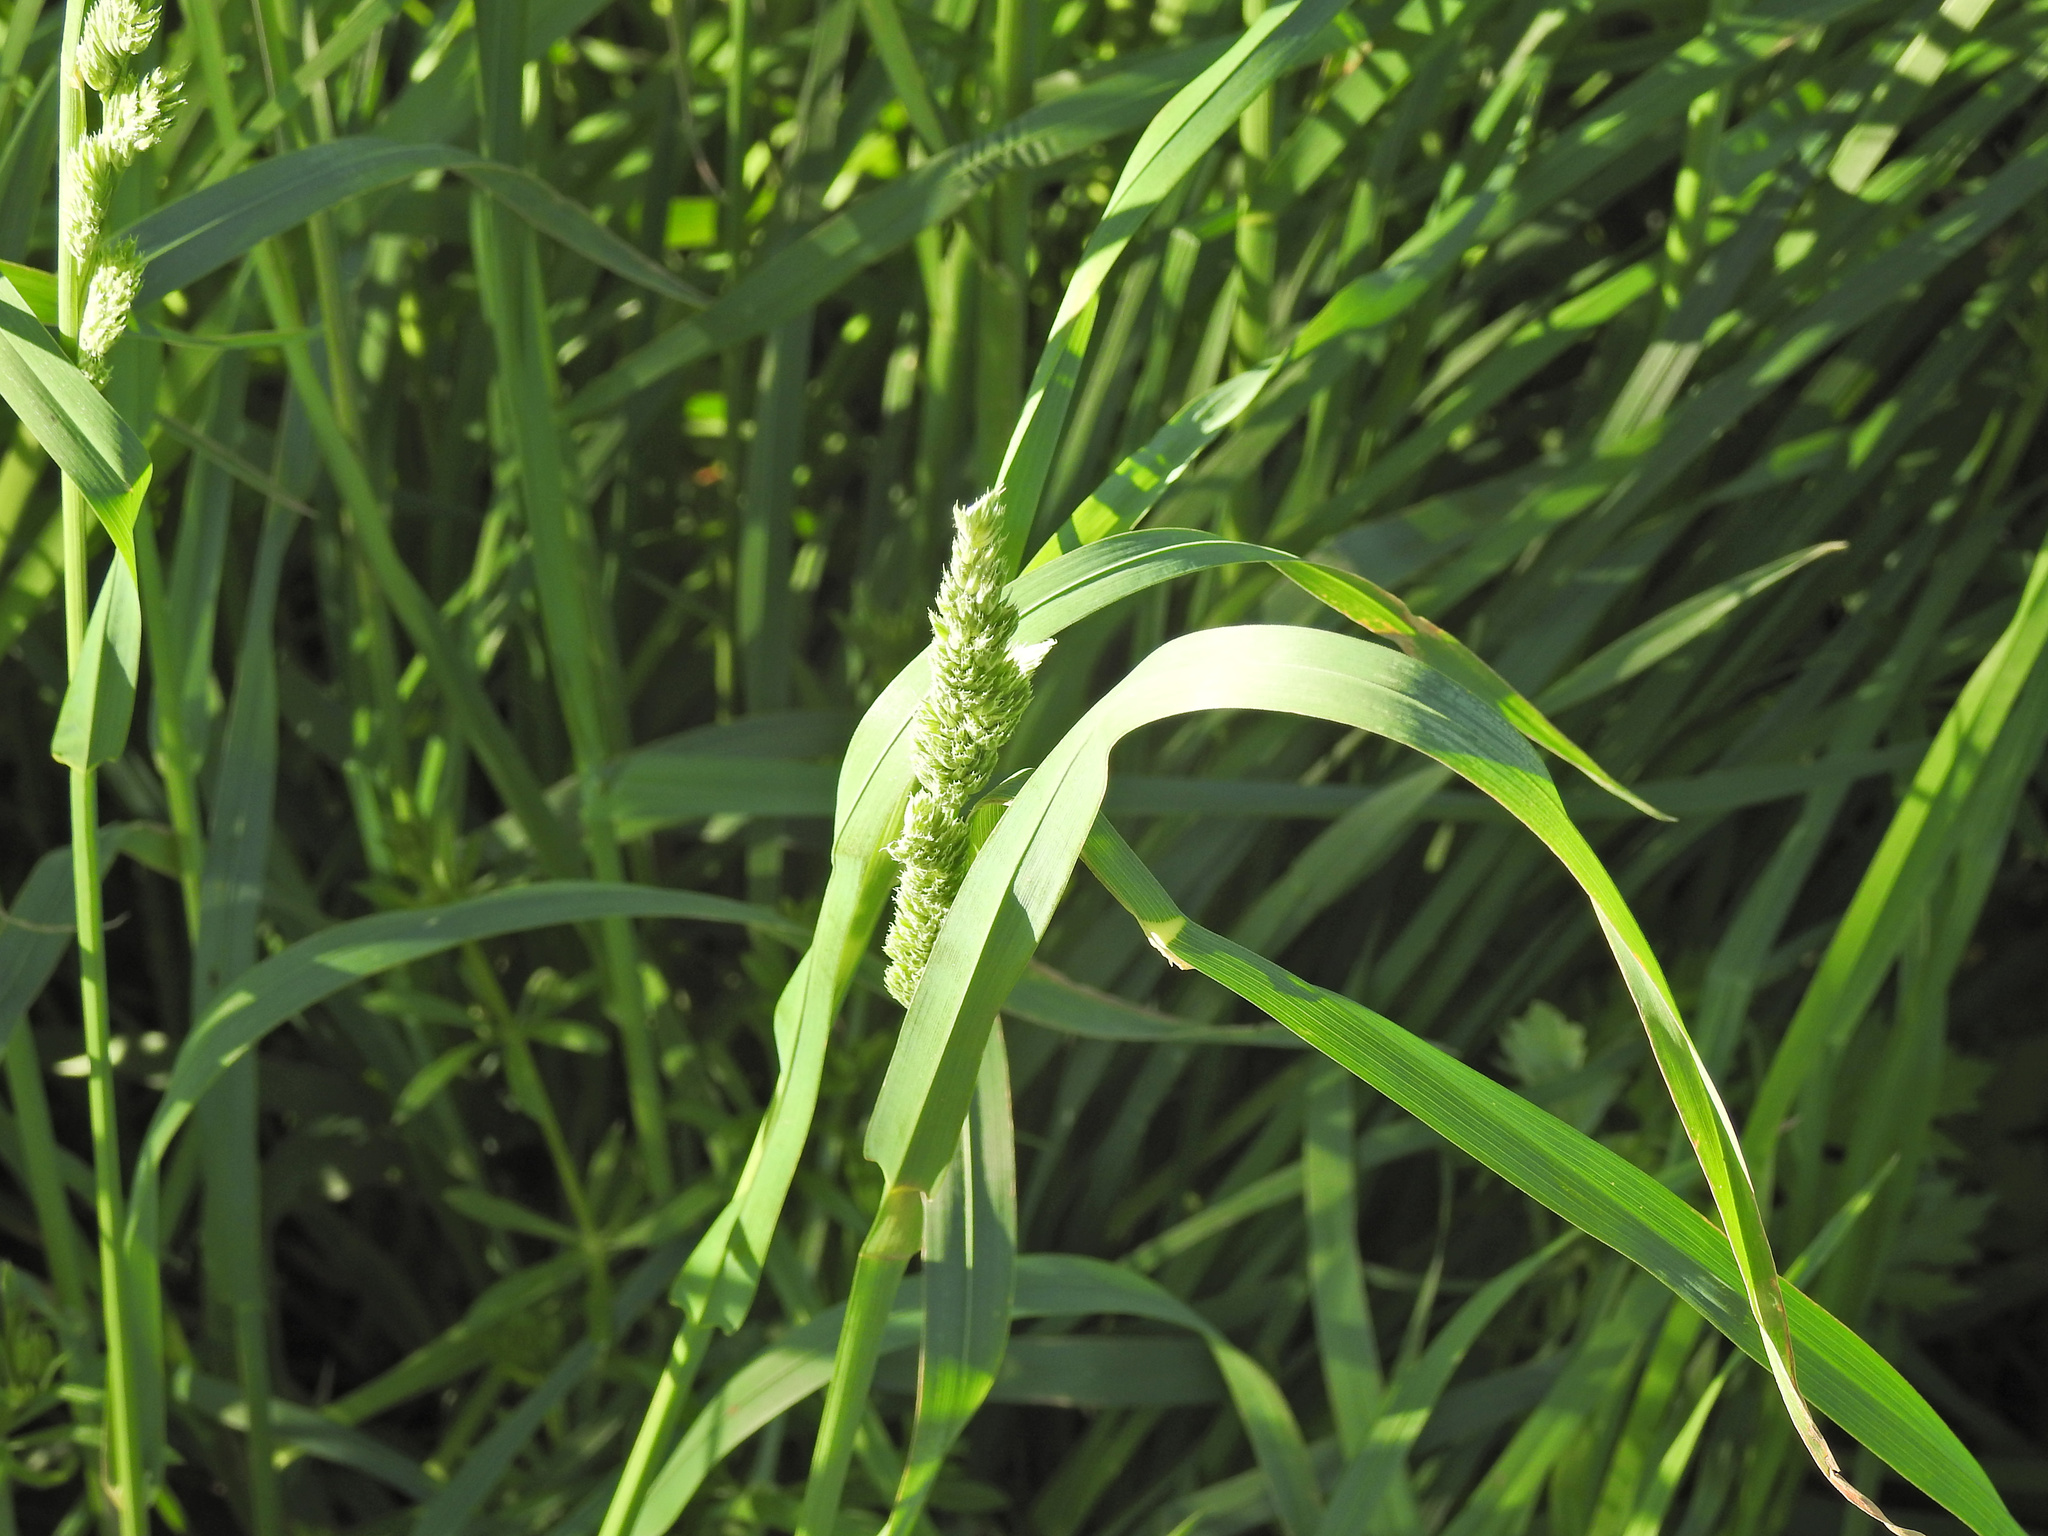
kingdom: Plantae
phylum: Tracheophyta
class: Liliopsida
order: Poales
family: Poaceae
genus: Dactylis
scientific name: Dactylis glomerata
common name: Orchardgrass
